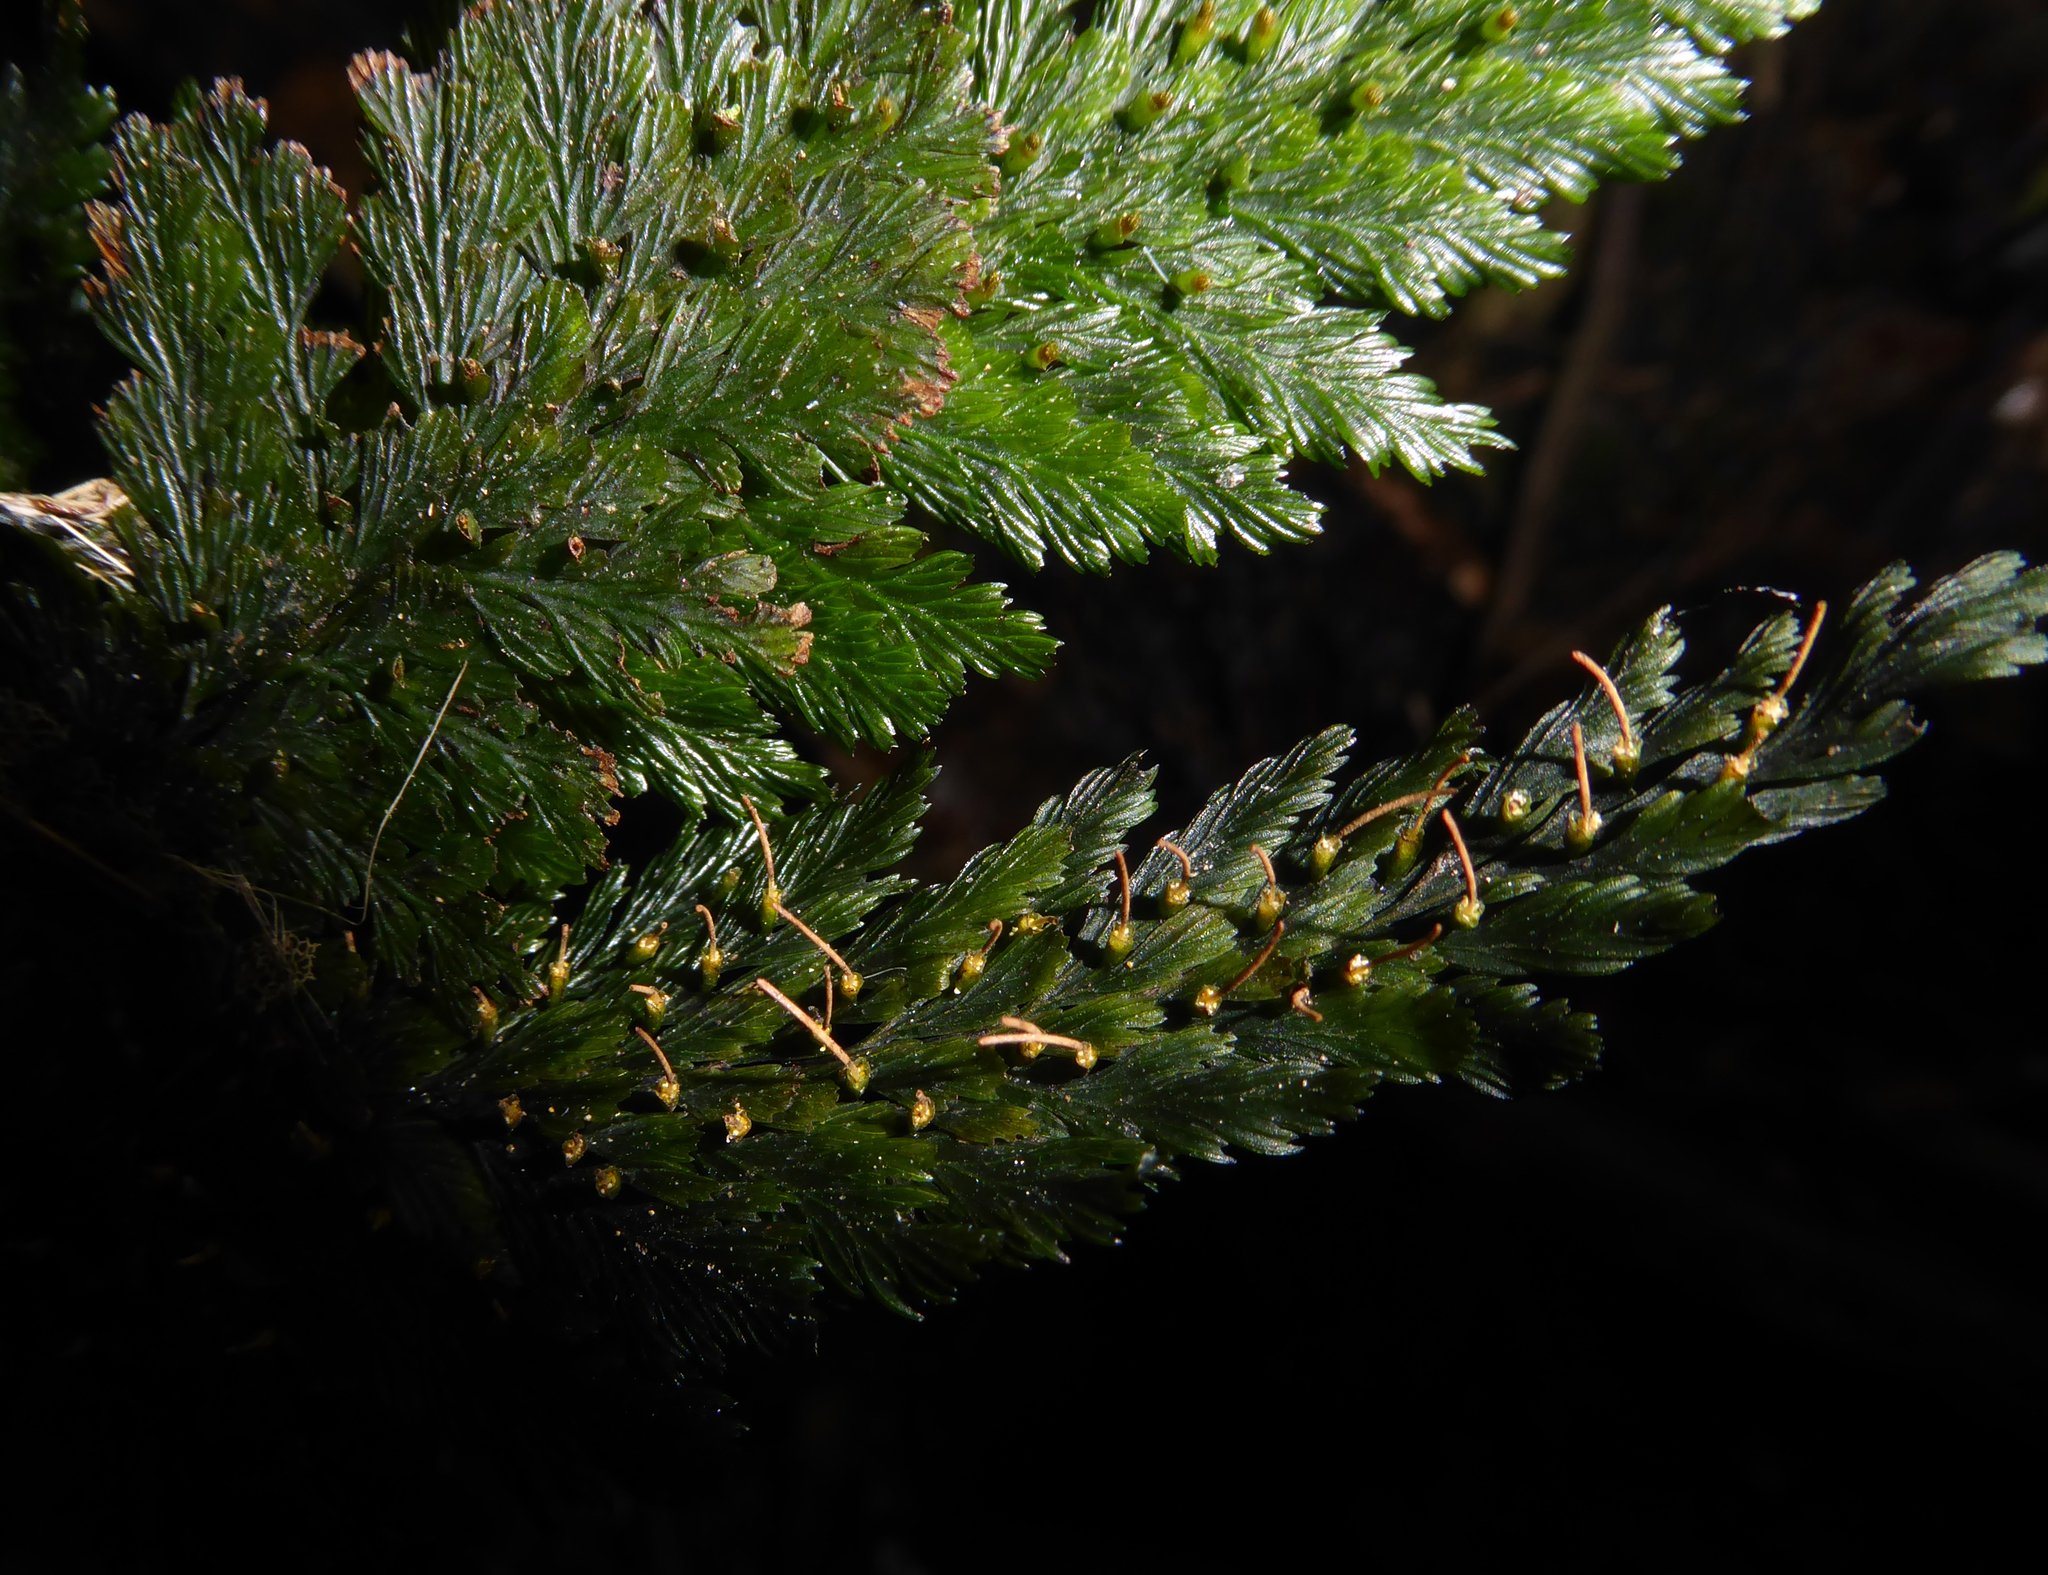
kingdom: Plantae
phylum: Tracheophyta
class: Polypodiopsida
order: Hymenophyllales
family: Hymenophyllaceae
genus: Abrodictyum
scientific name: Abrodictyum elongatum
